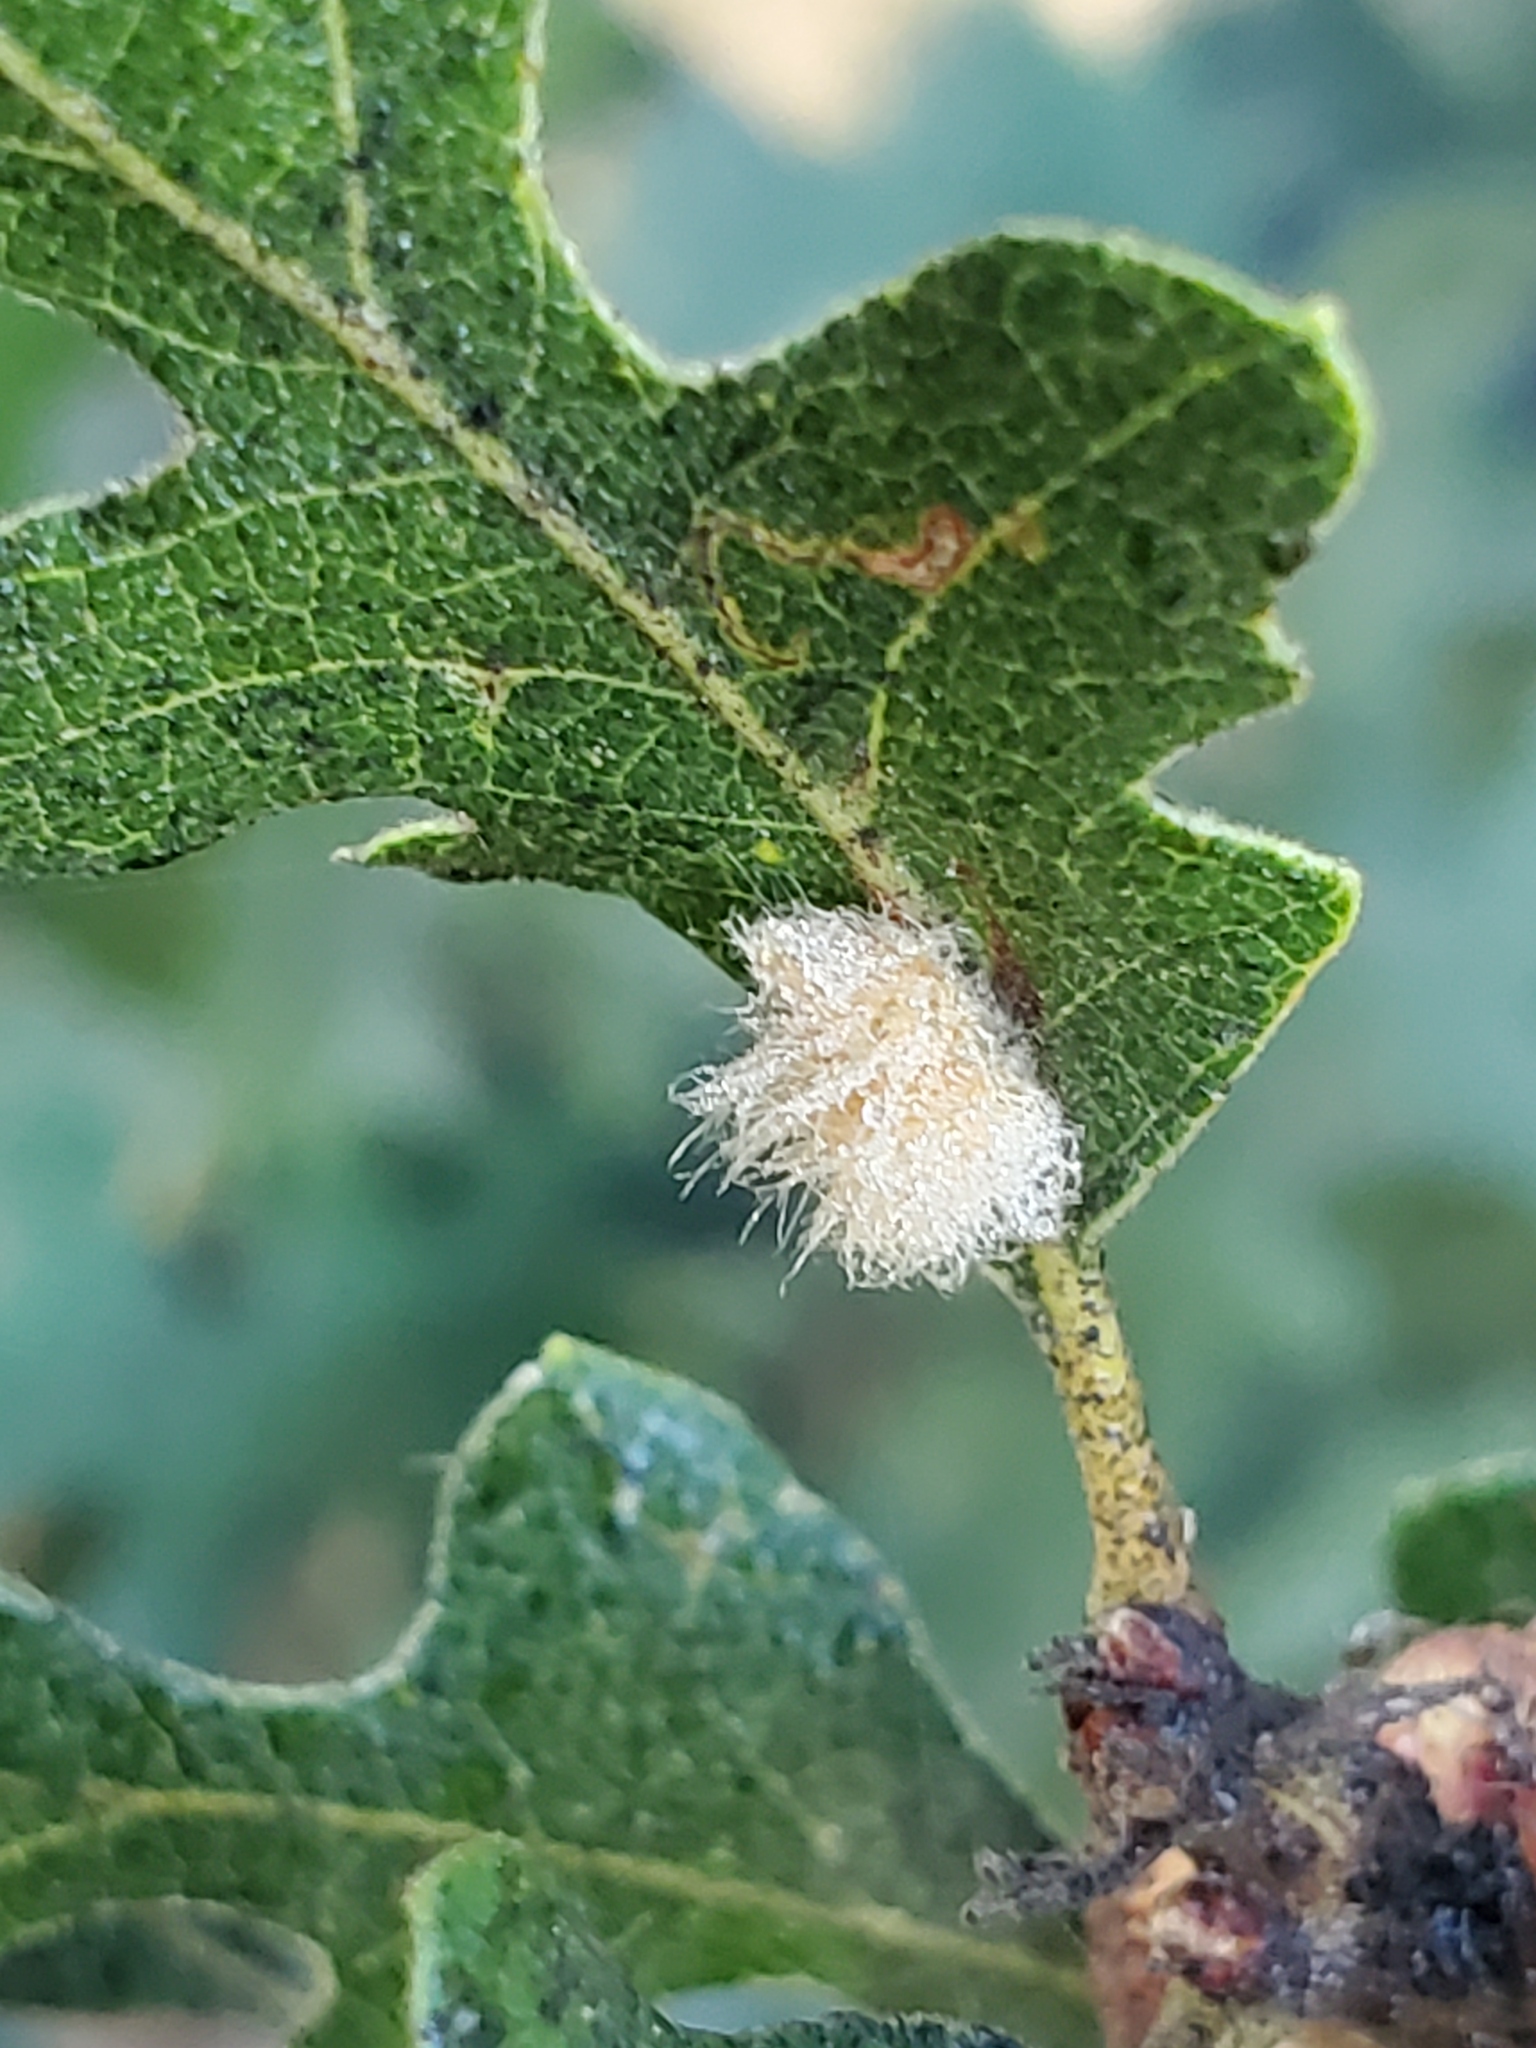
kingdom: Animalia
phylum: Arthropoda
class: Insecta
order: Hymenoptera
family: Cynipidae
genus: Andricus
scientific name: Andricus Druon fullawayi
